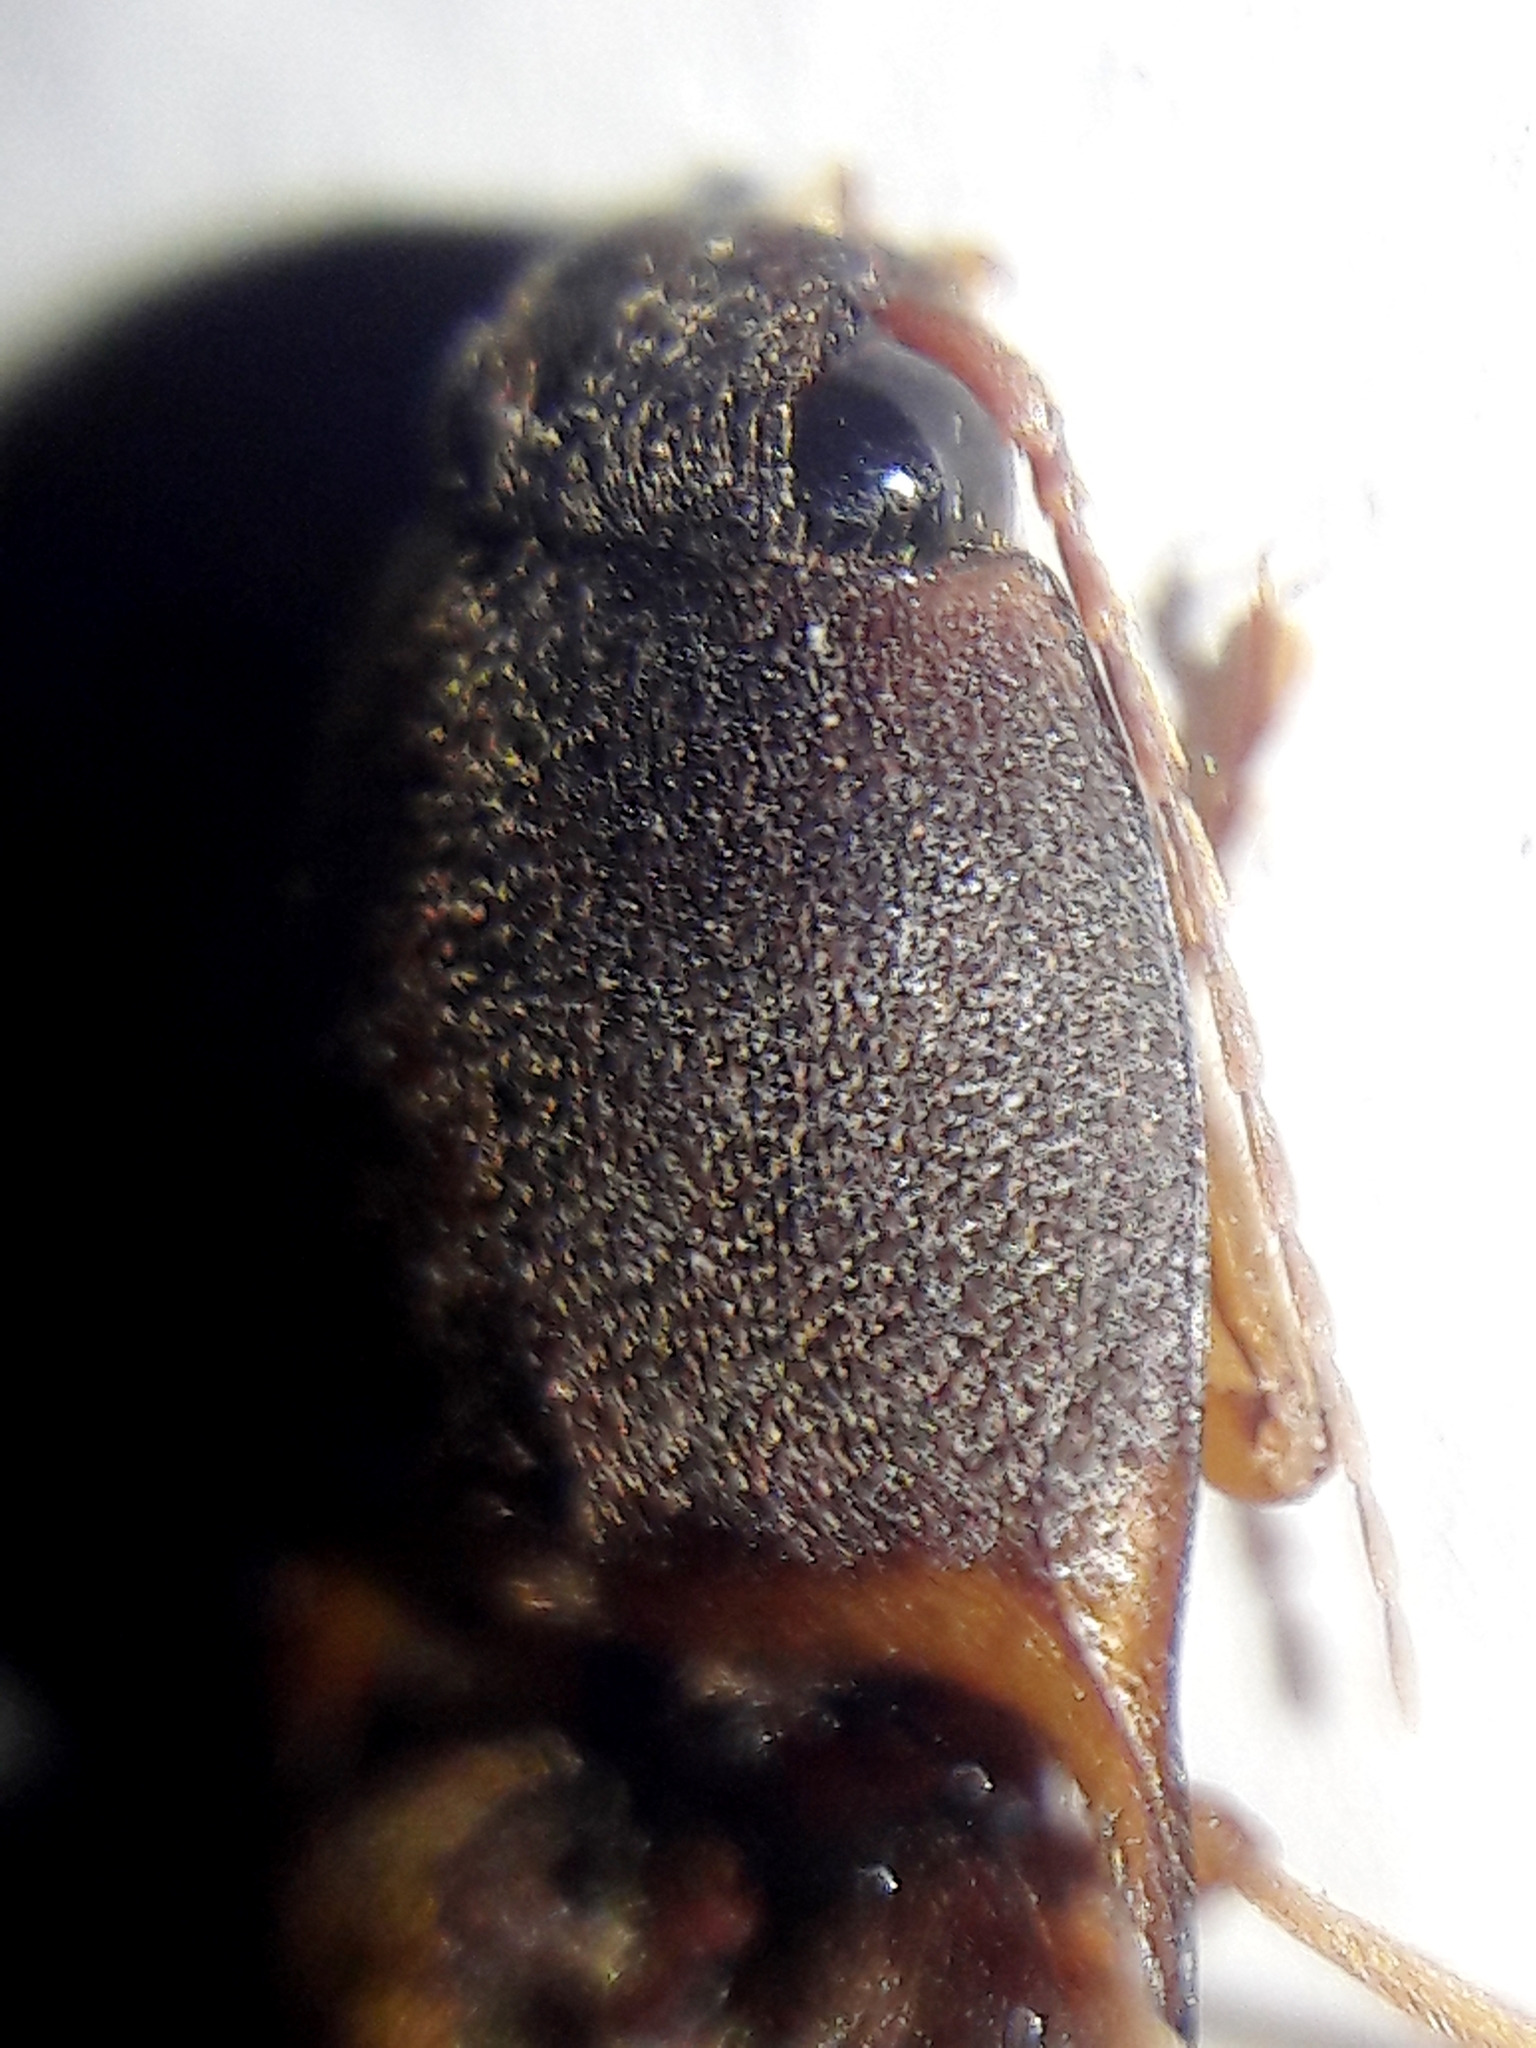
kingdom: Animalia
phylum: Arthropoda
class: Insecta
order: Coleoptera
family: Elateridae
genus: Monocrepidius
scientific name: Monocrepidius
